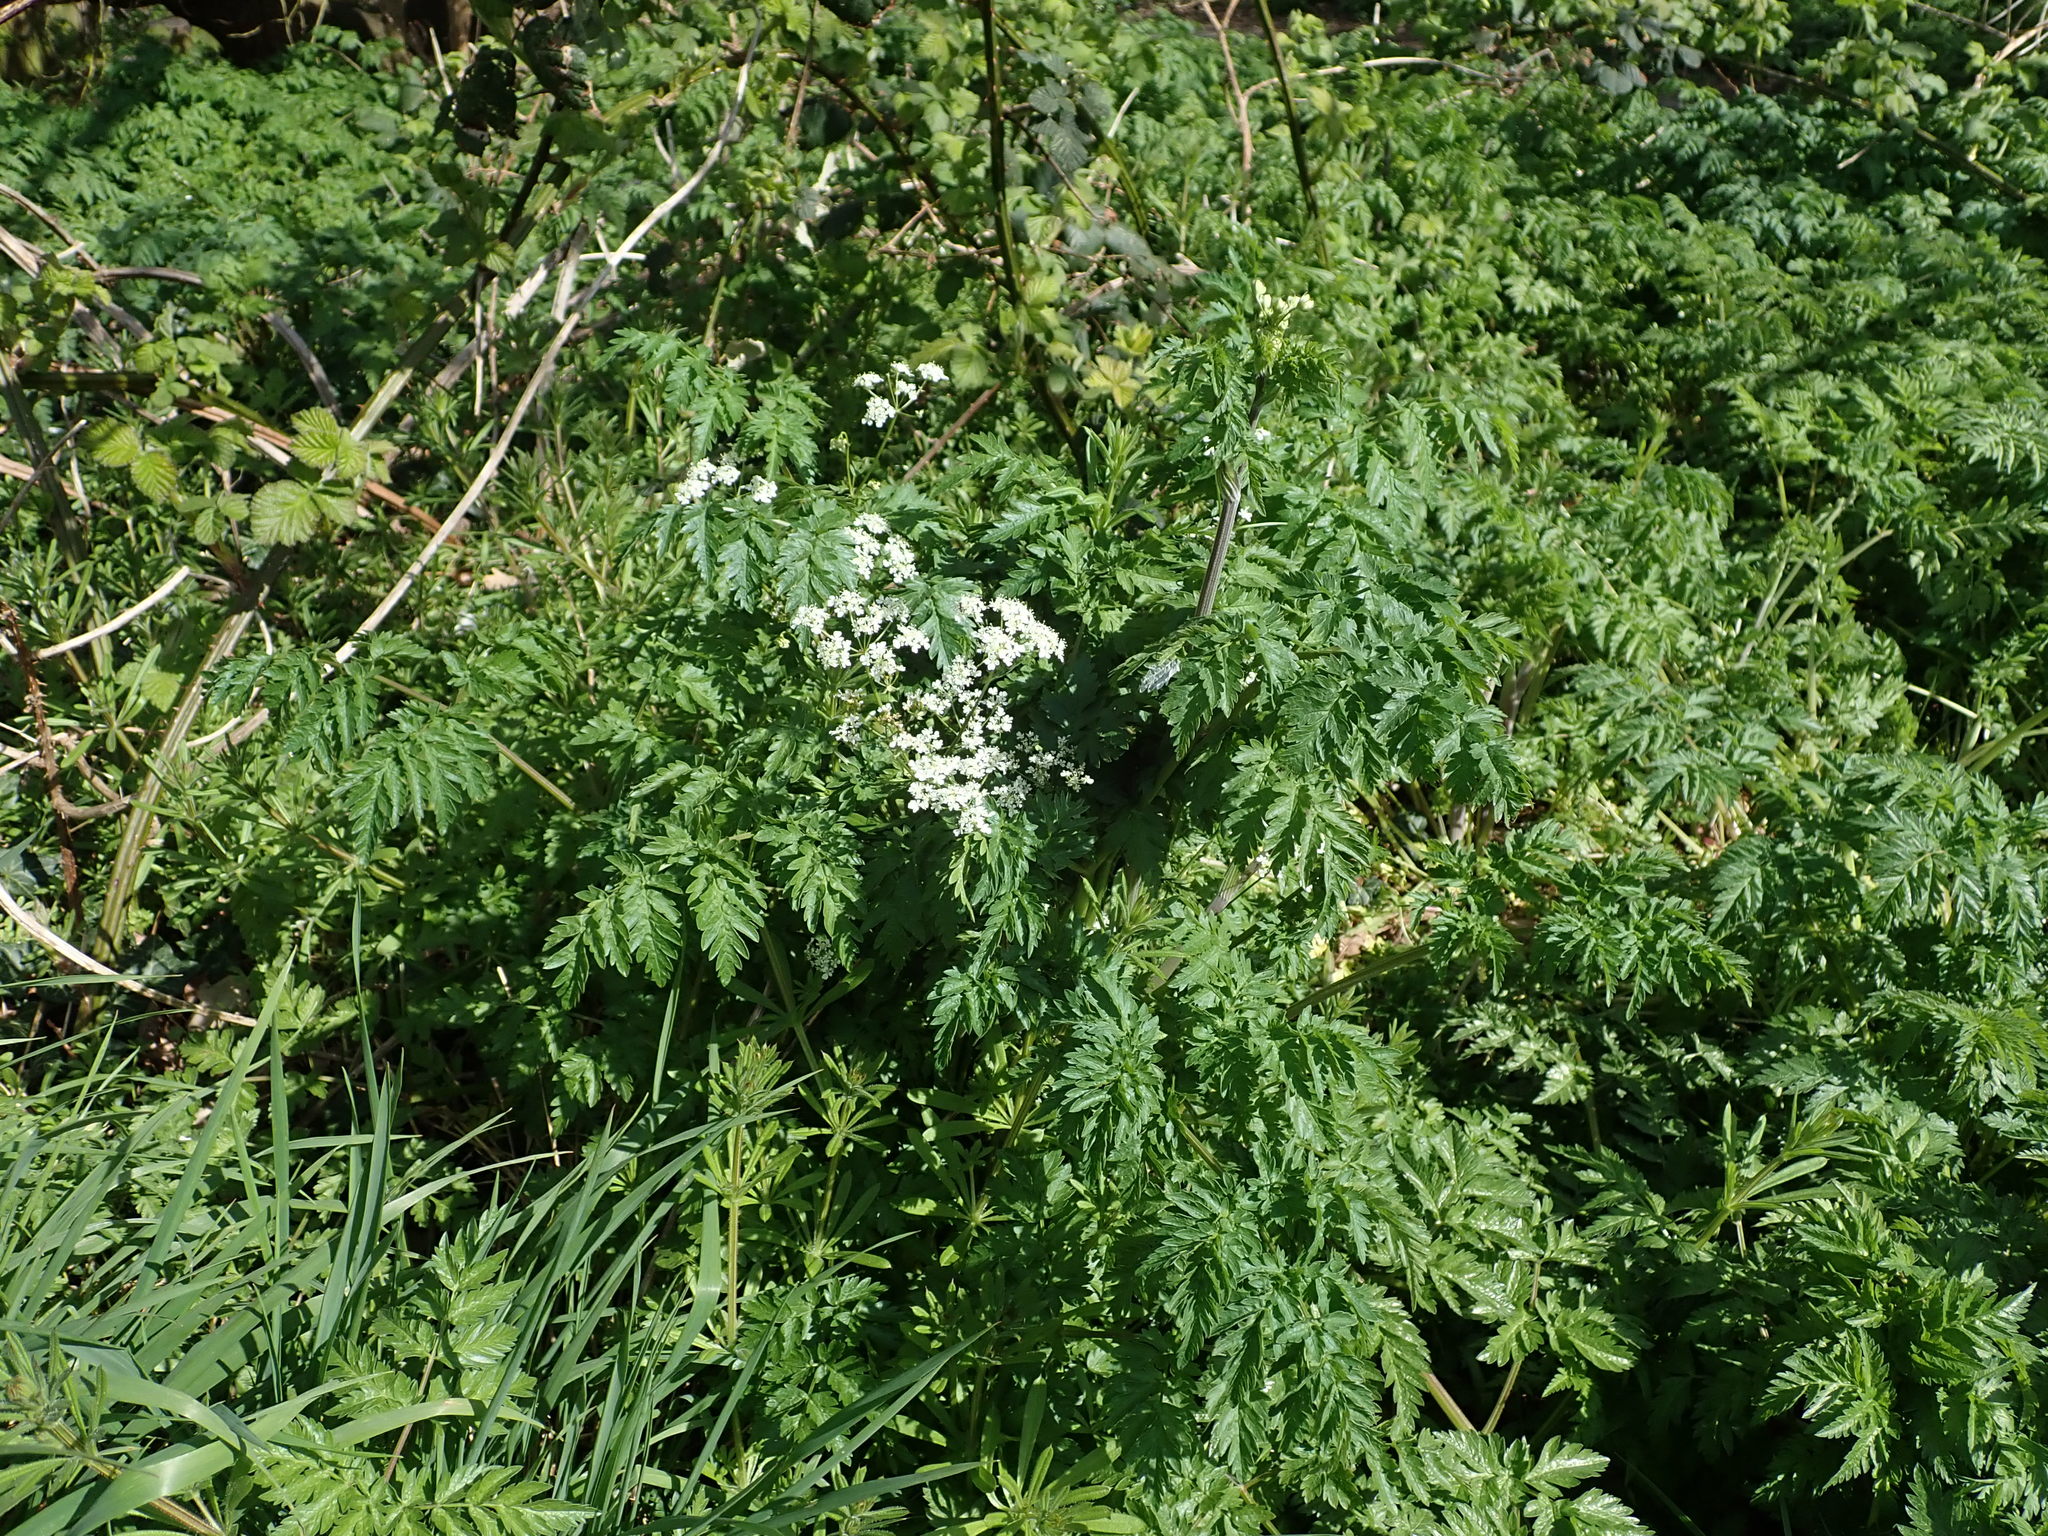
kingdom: Plantae
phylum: Tracheophyta
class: Magnoliopsida
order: Apiales
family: Apiaceae
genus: Anthriscus
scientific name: Anthriscus sylvestris
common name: Cow parsley
